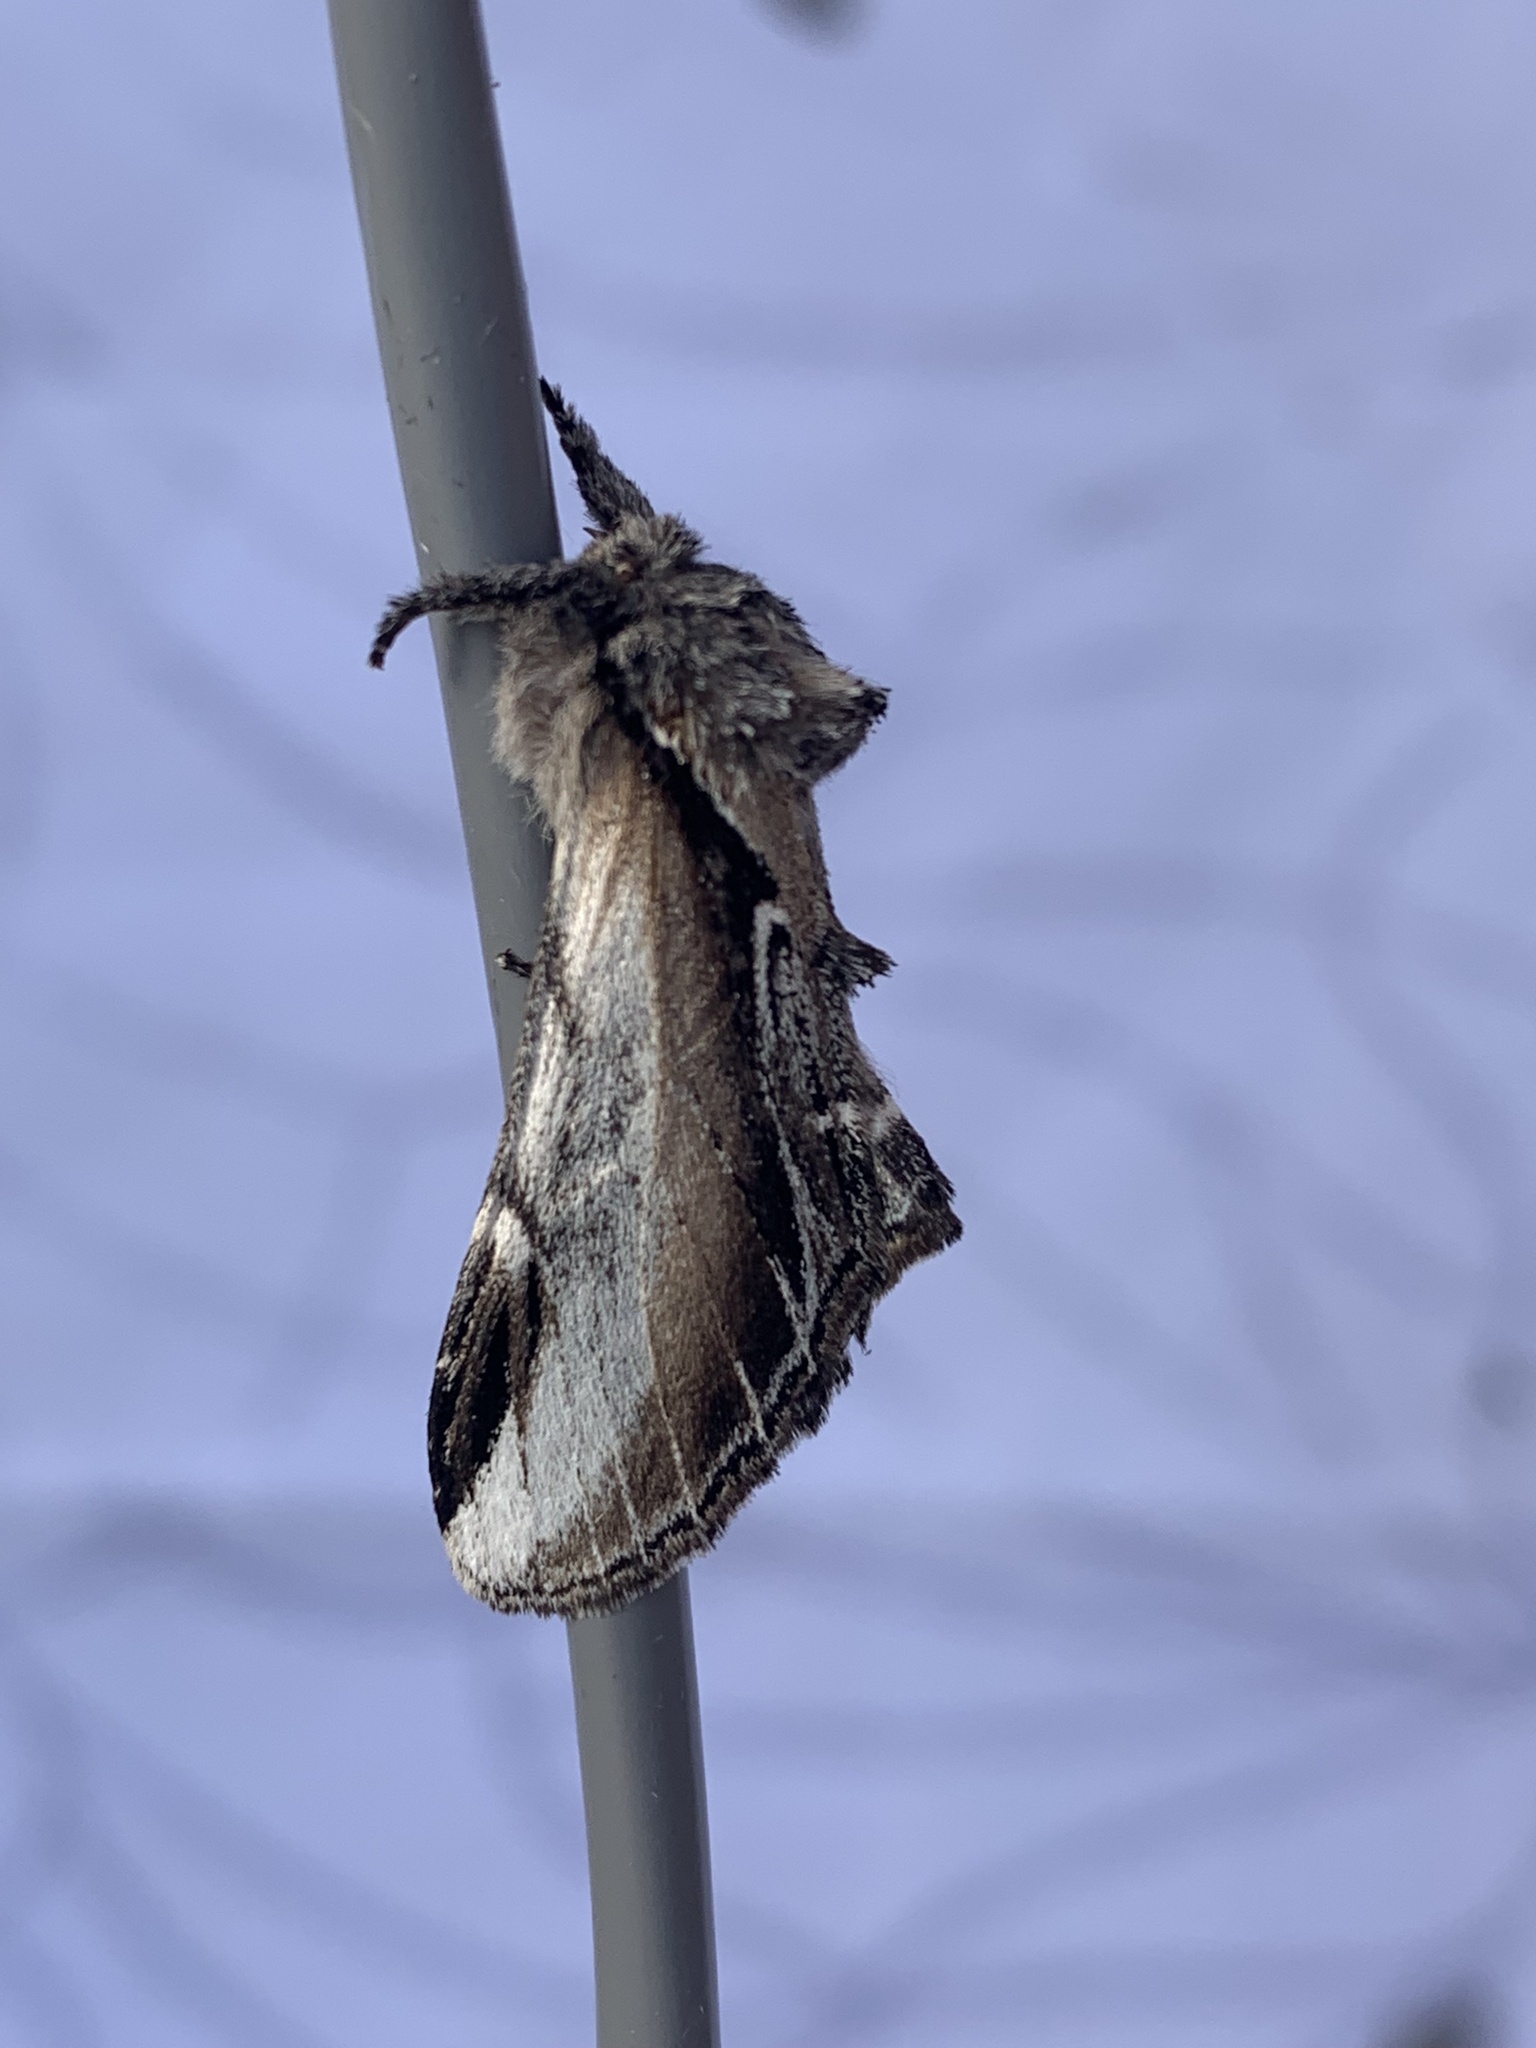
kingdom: Animalia
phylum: Arthropoda
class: Insecta
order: Lepidoptera
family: Notodontidae
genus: Pheosia
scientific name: Pheosia rimosa
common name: Black-rimmed prominent
